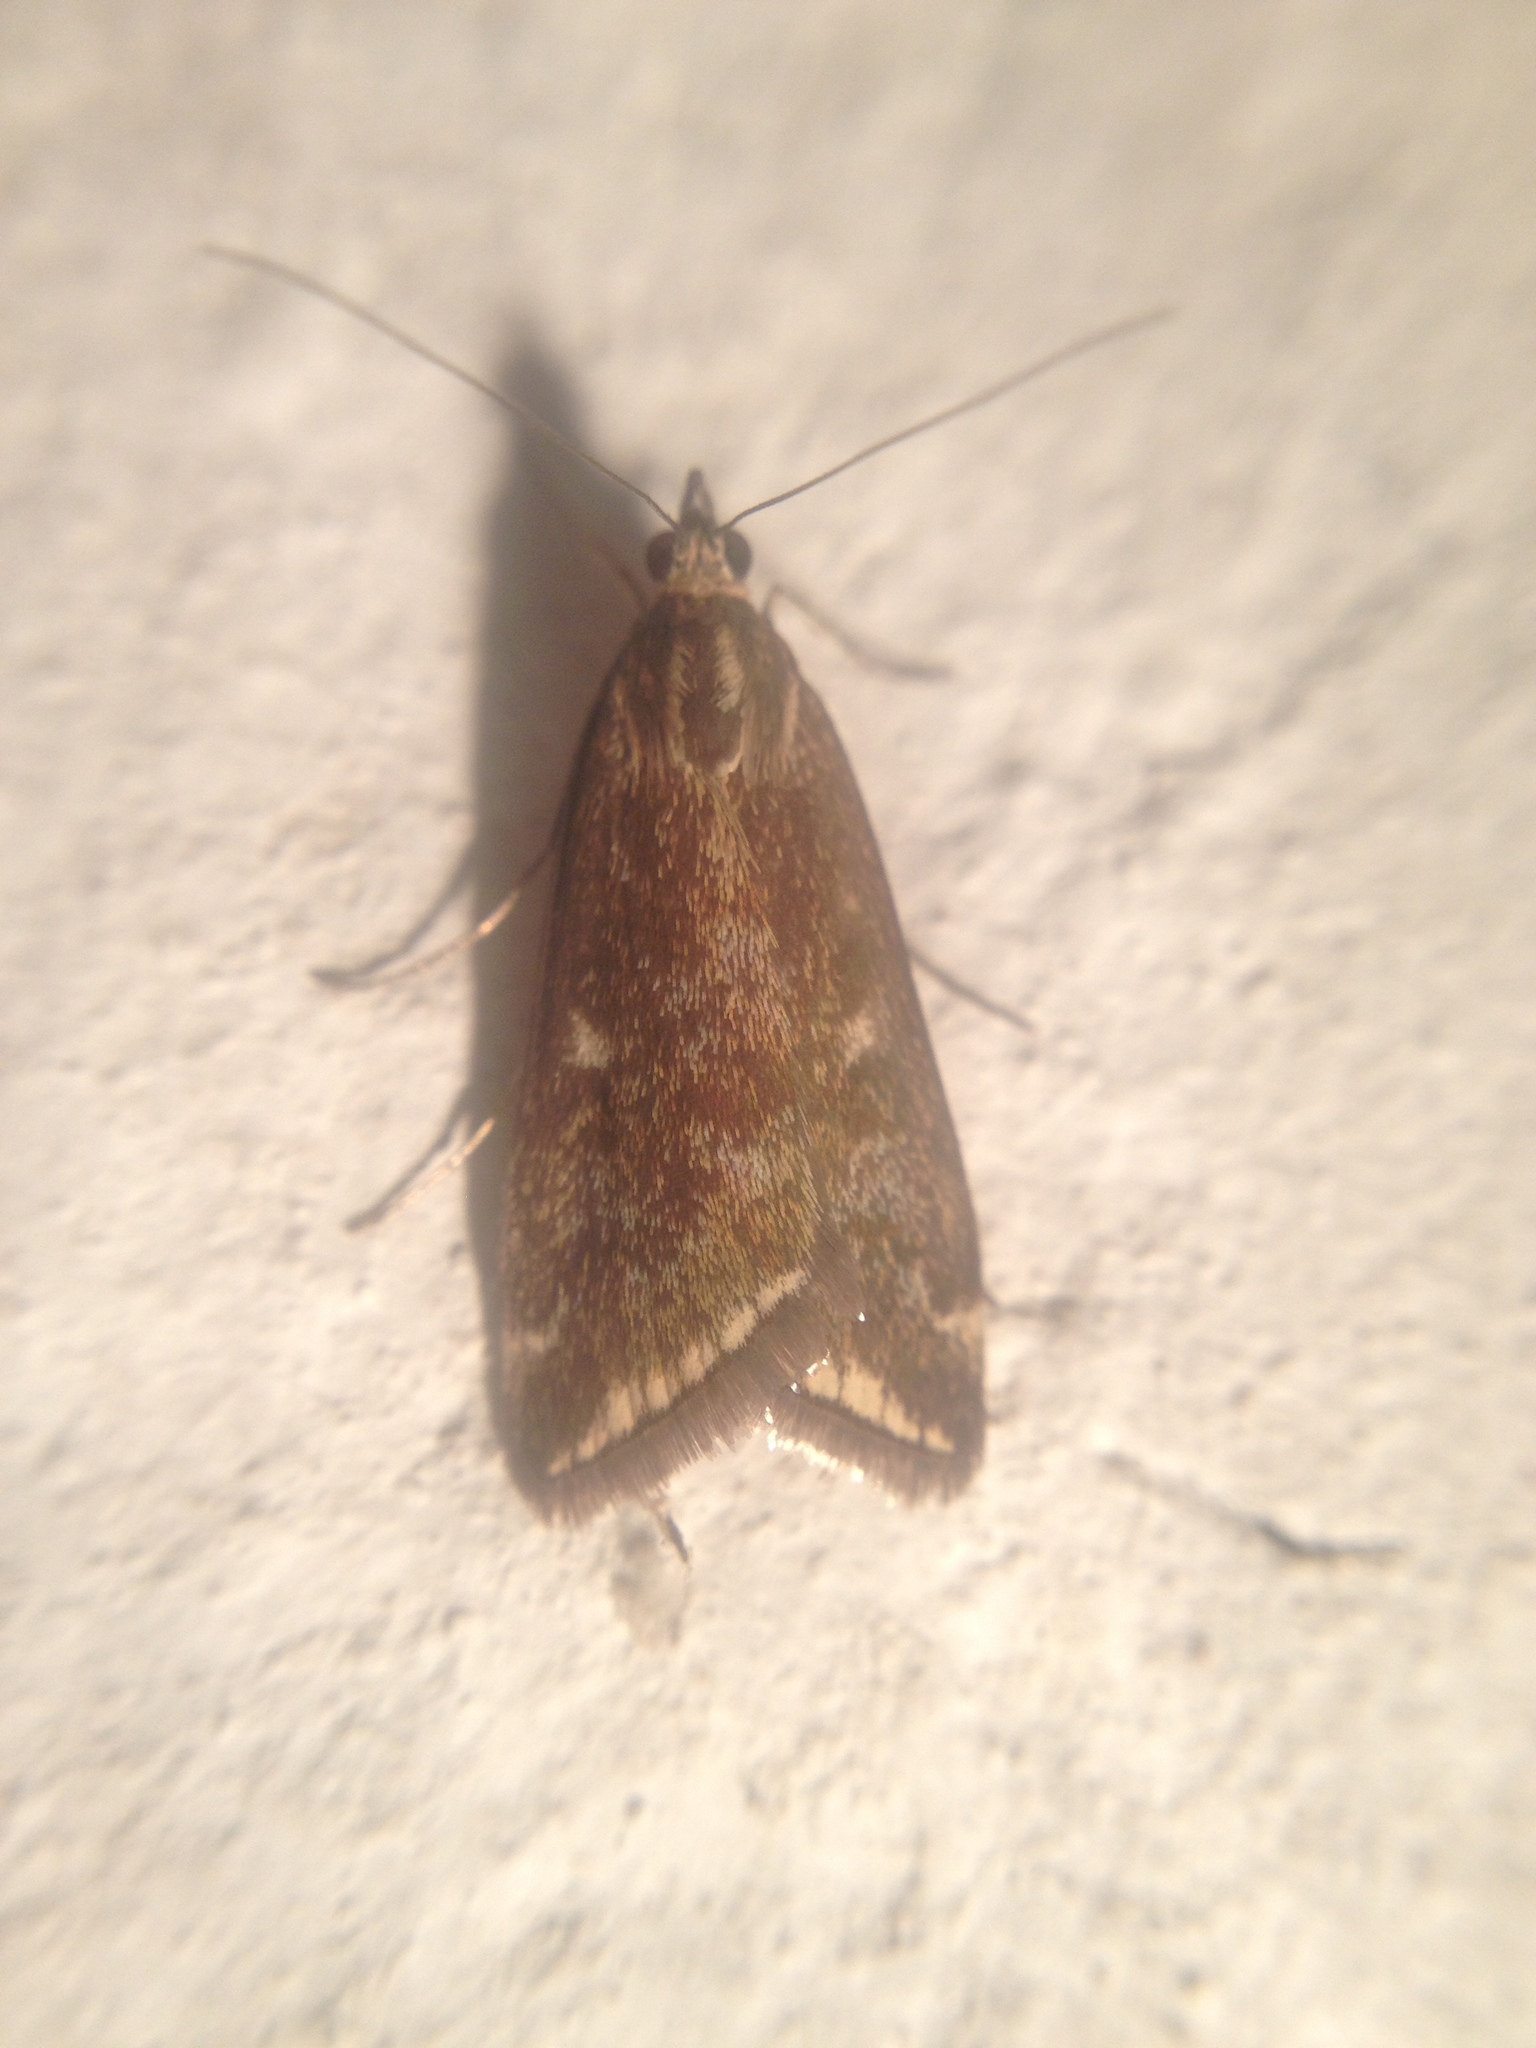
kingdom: Animalia
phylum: Arthropoda
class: Insecta
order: Lepidoptera
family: Crambidae
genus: Loxostege
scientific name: Loxostege sticticalis
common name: Crambid moth
